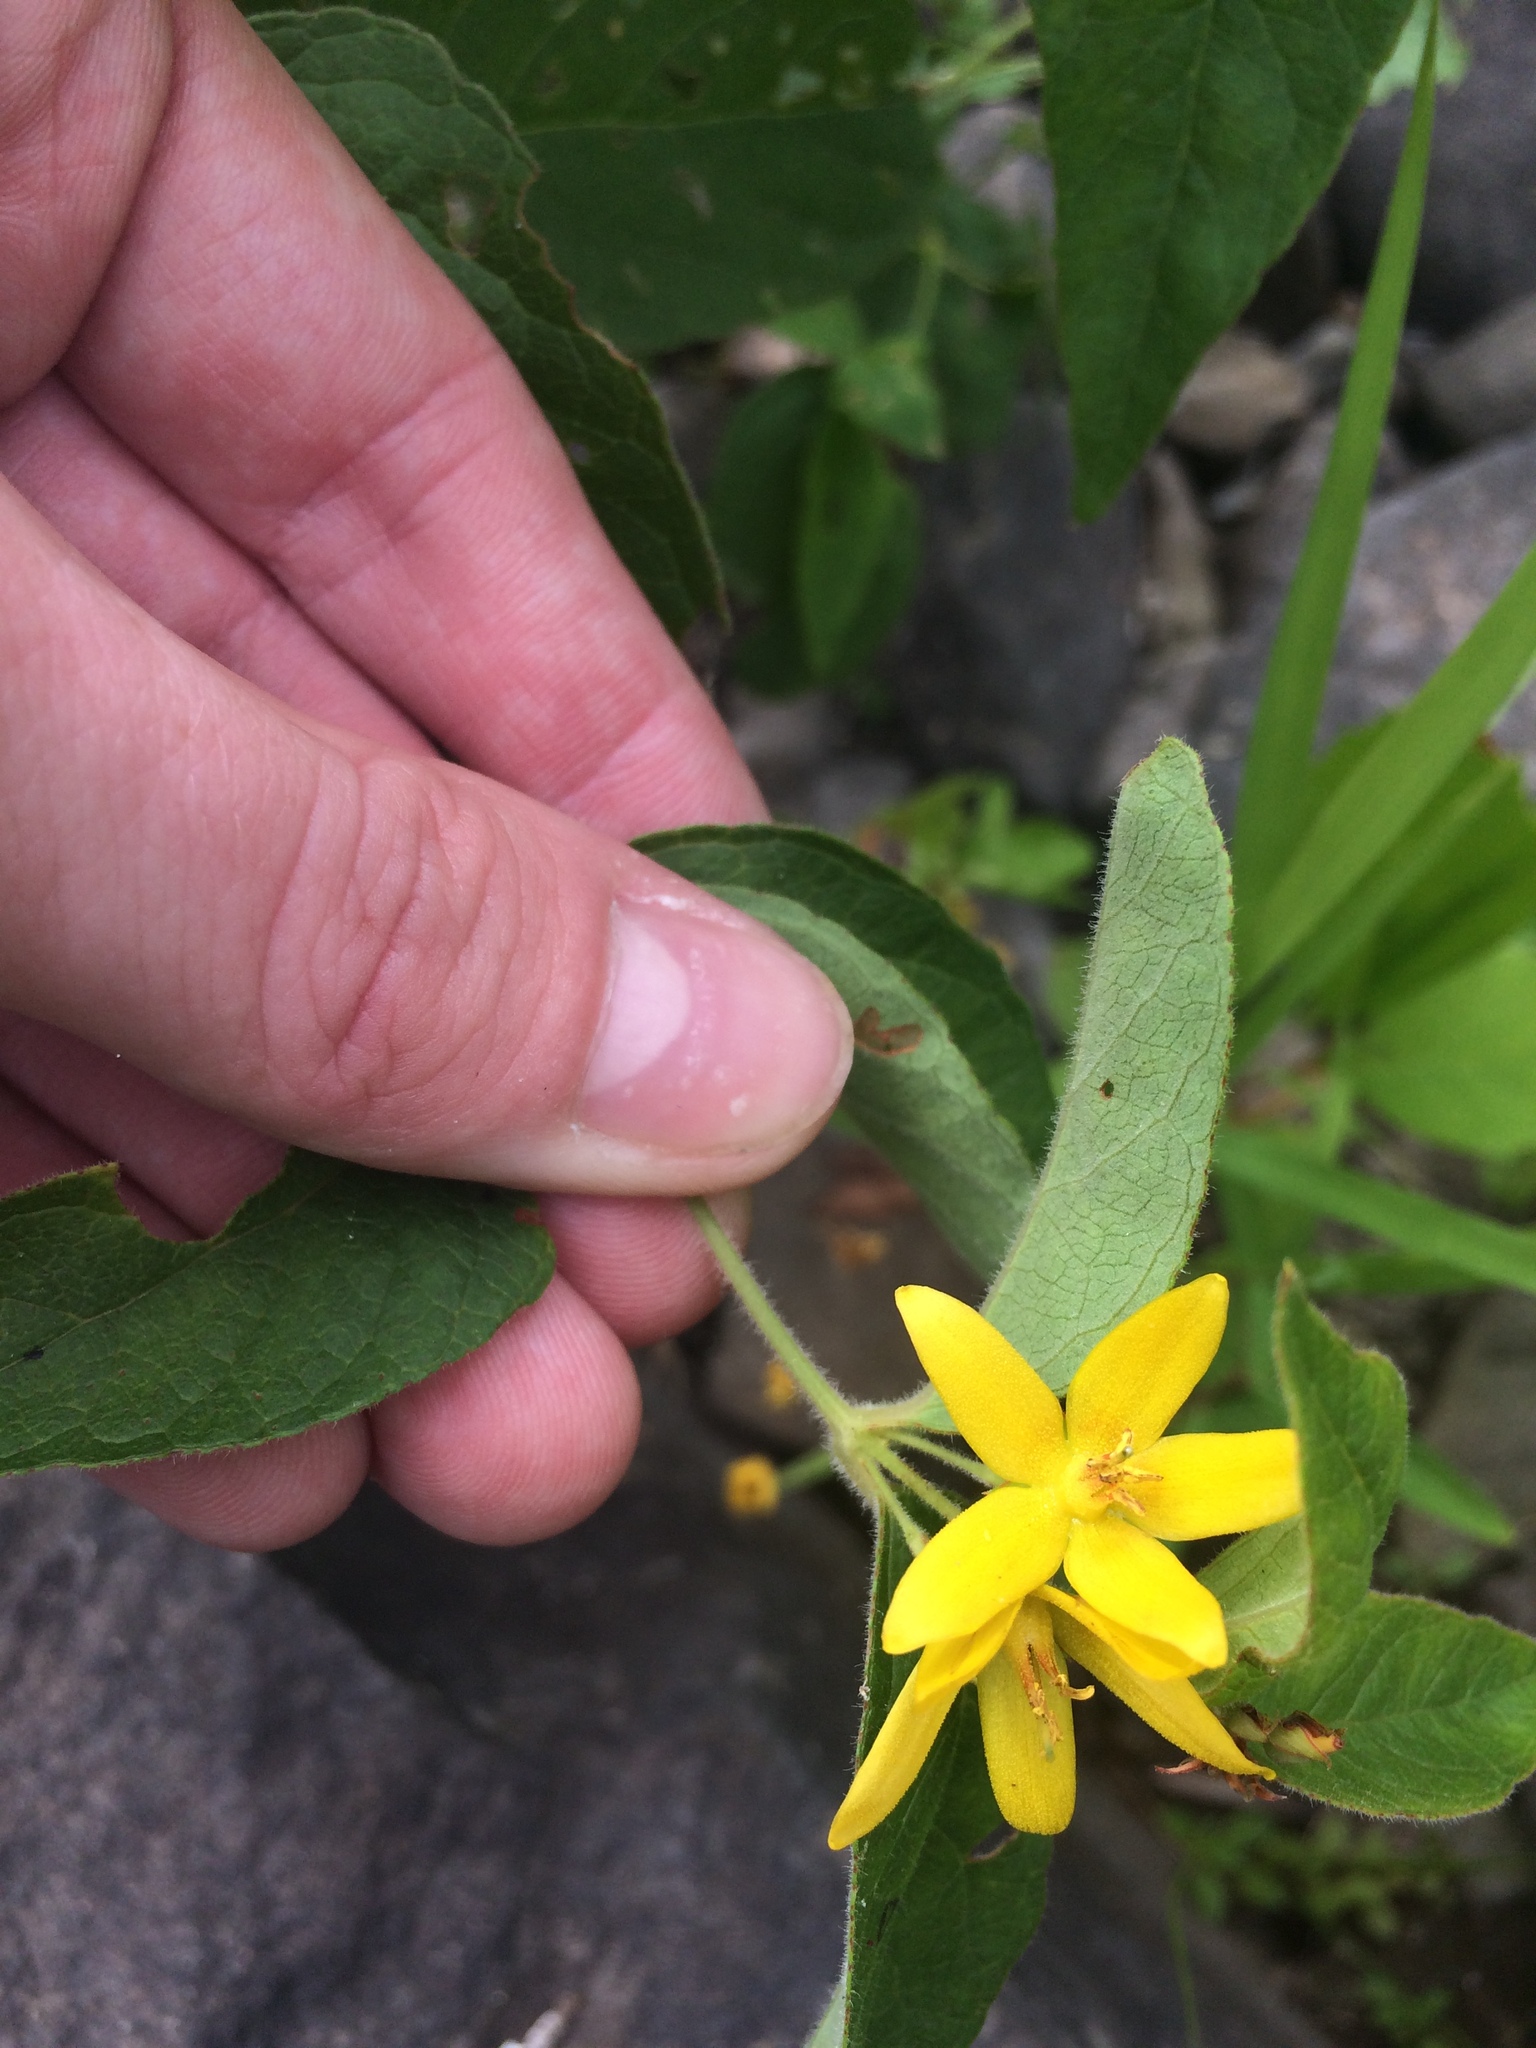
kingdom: Plantae
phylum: Tracheophyta
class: Magnoliopsida
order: Ericales
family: Primulaceae
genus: Lysimachia
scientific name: Lysimachia vulgaris
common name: Yellow loosestrife
